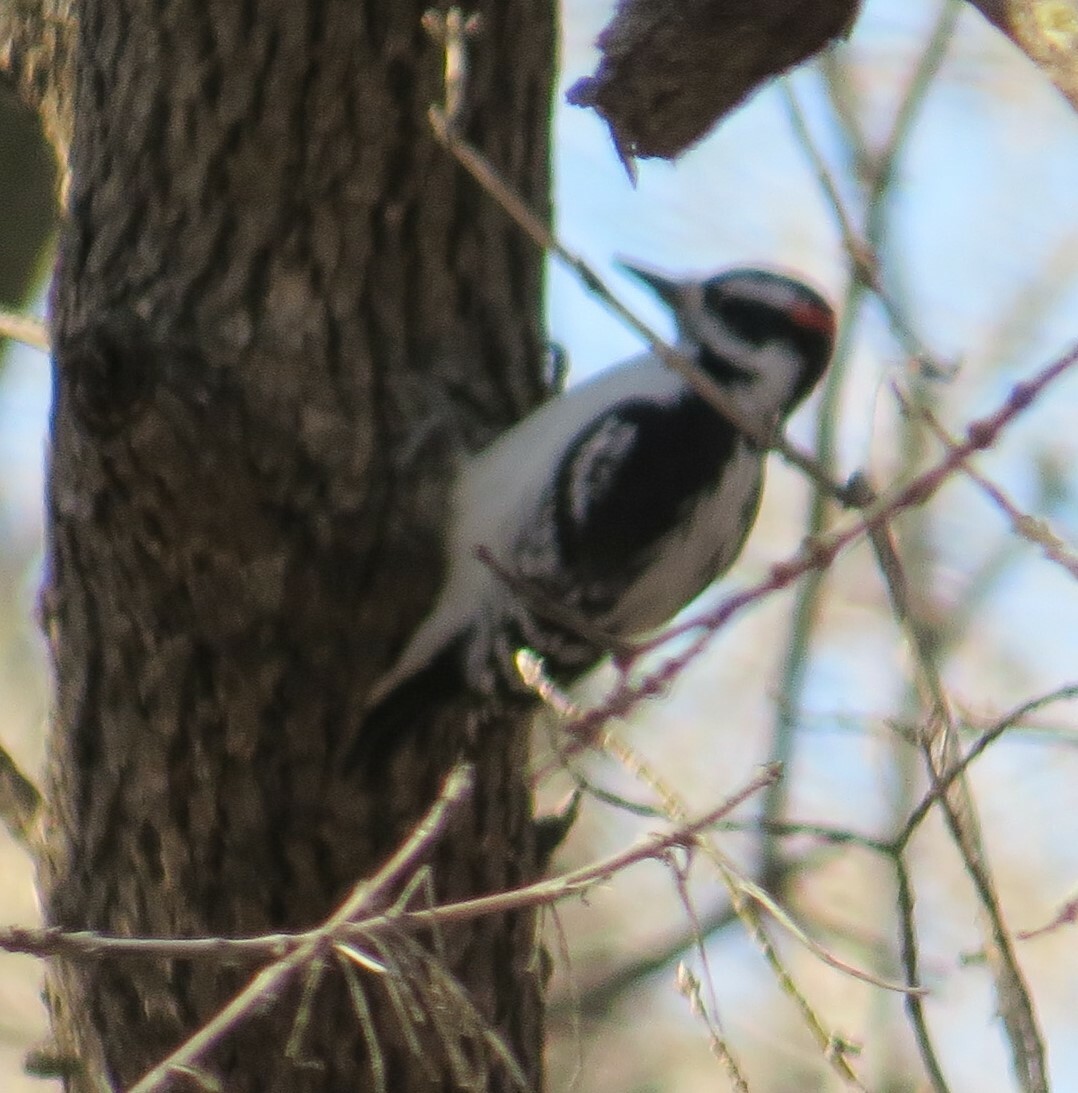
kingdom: Animalia
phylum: Chordata
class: Aves
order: Piciformes
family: Picidae
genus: Leuconotopicus
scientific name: Leuconotopicus villosus
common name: Hairy woodpecker
